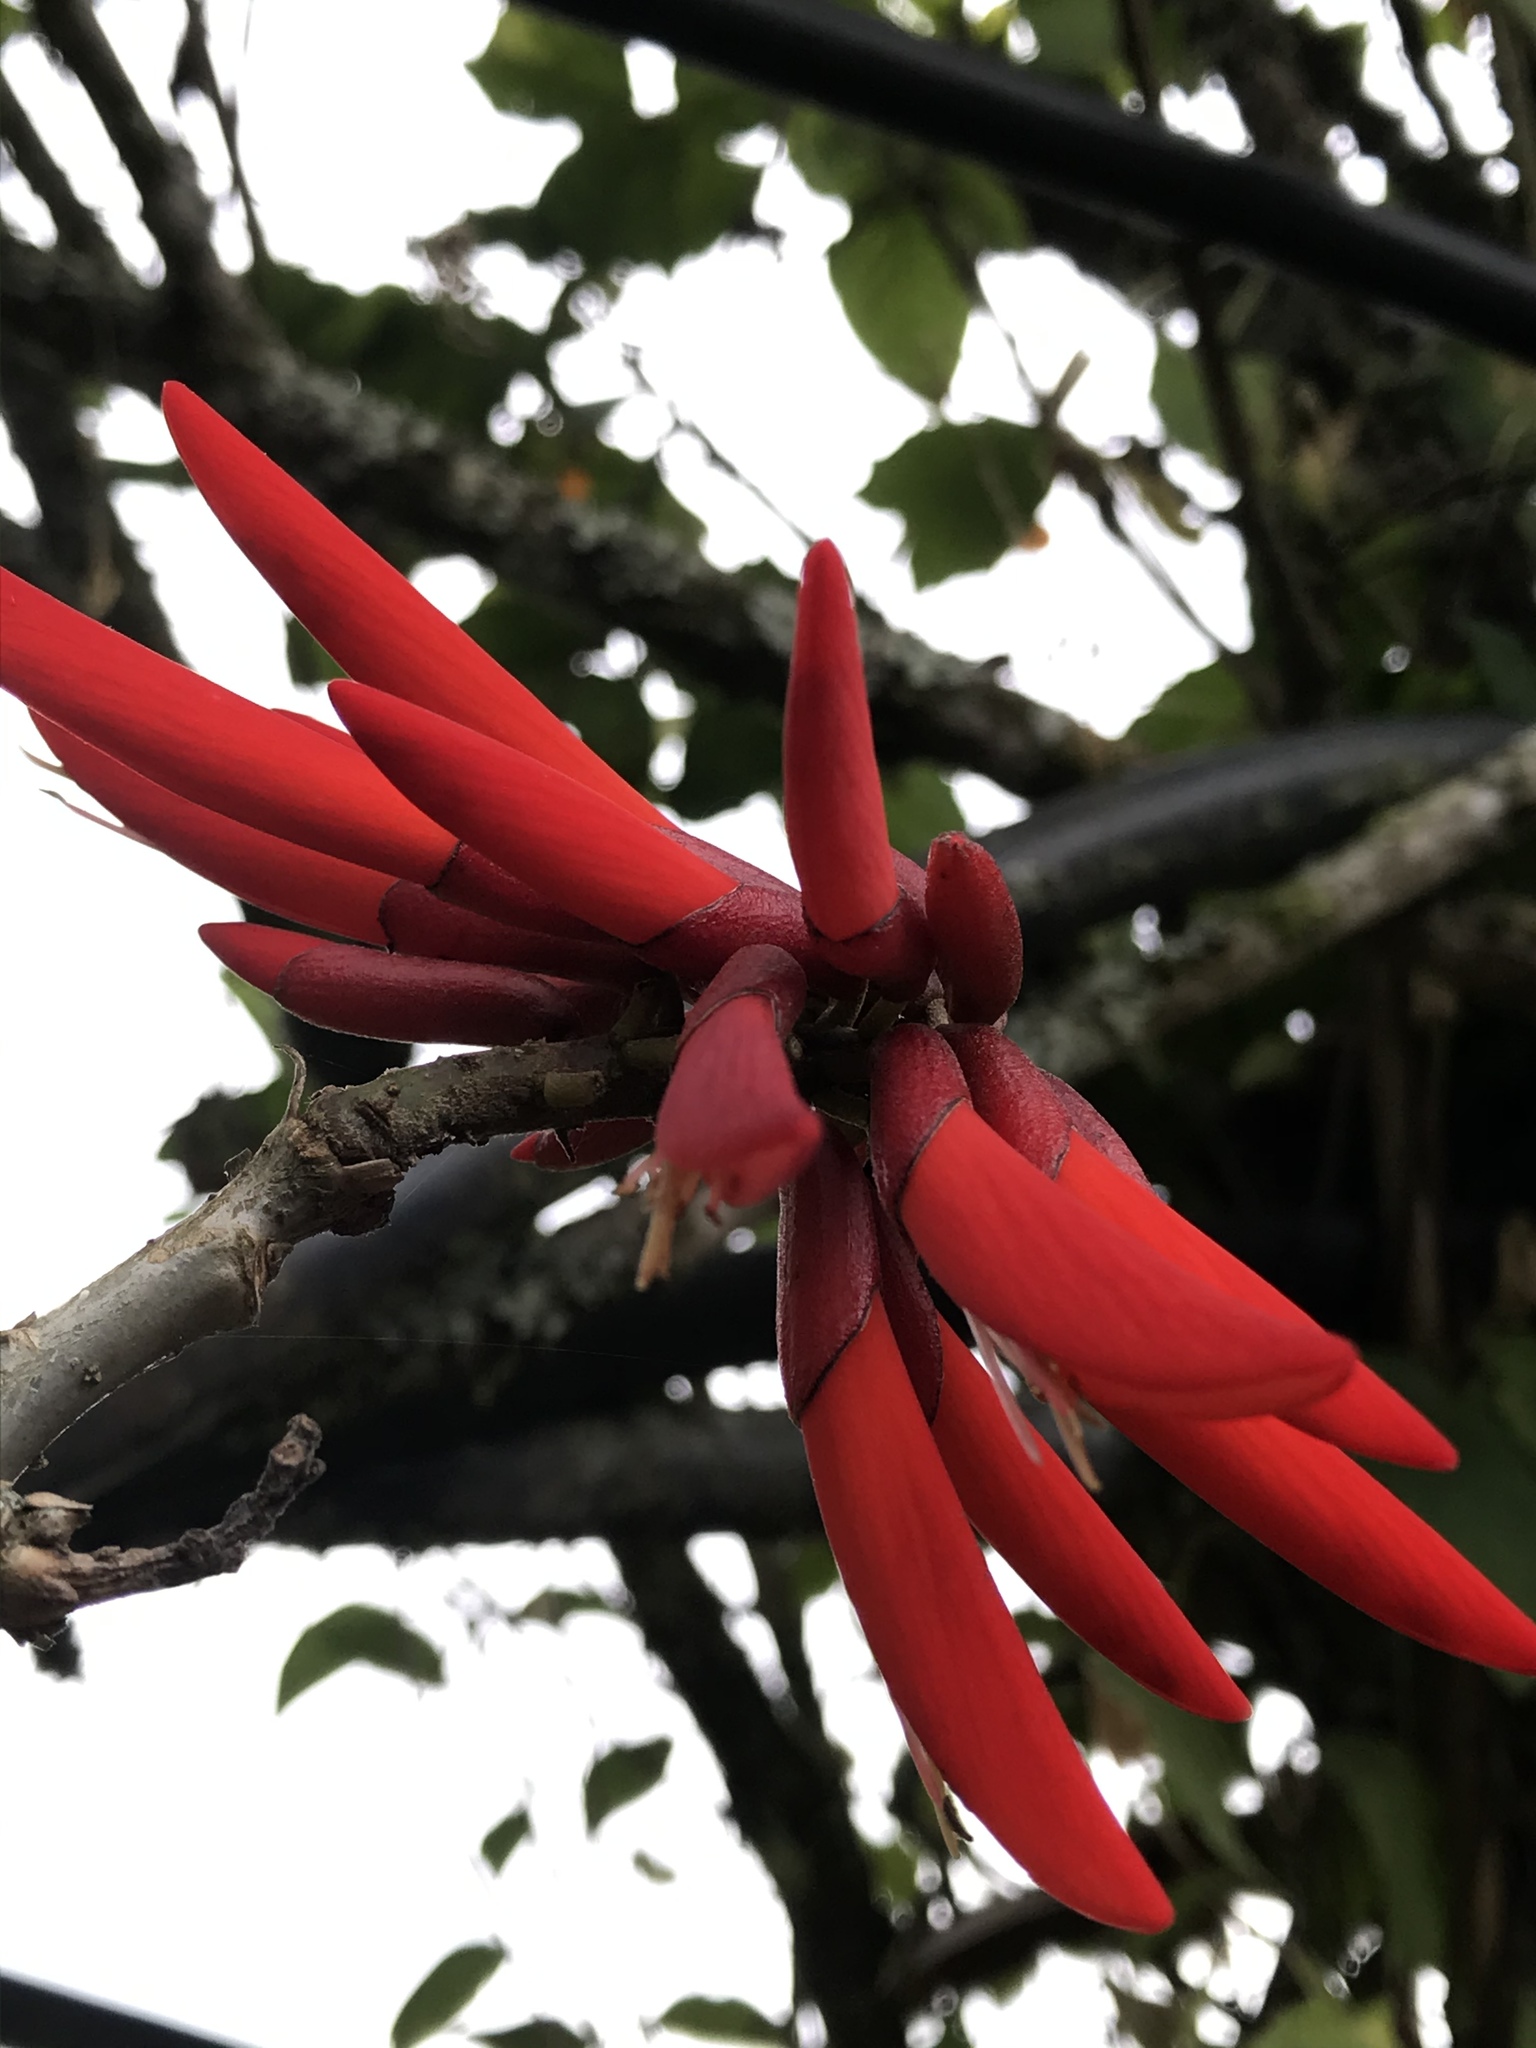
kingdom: Plantae
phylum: Tracheophyta
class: Magnoliopsida
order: Fabales
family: Fabaceae
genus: Erythrina
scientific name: Erythrina rubrinervia
